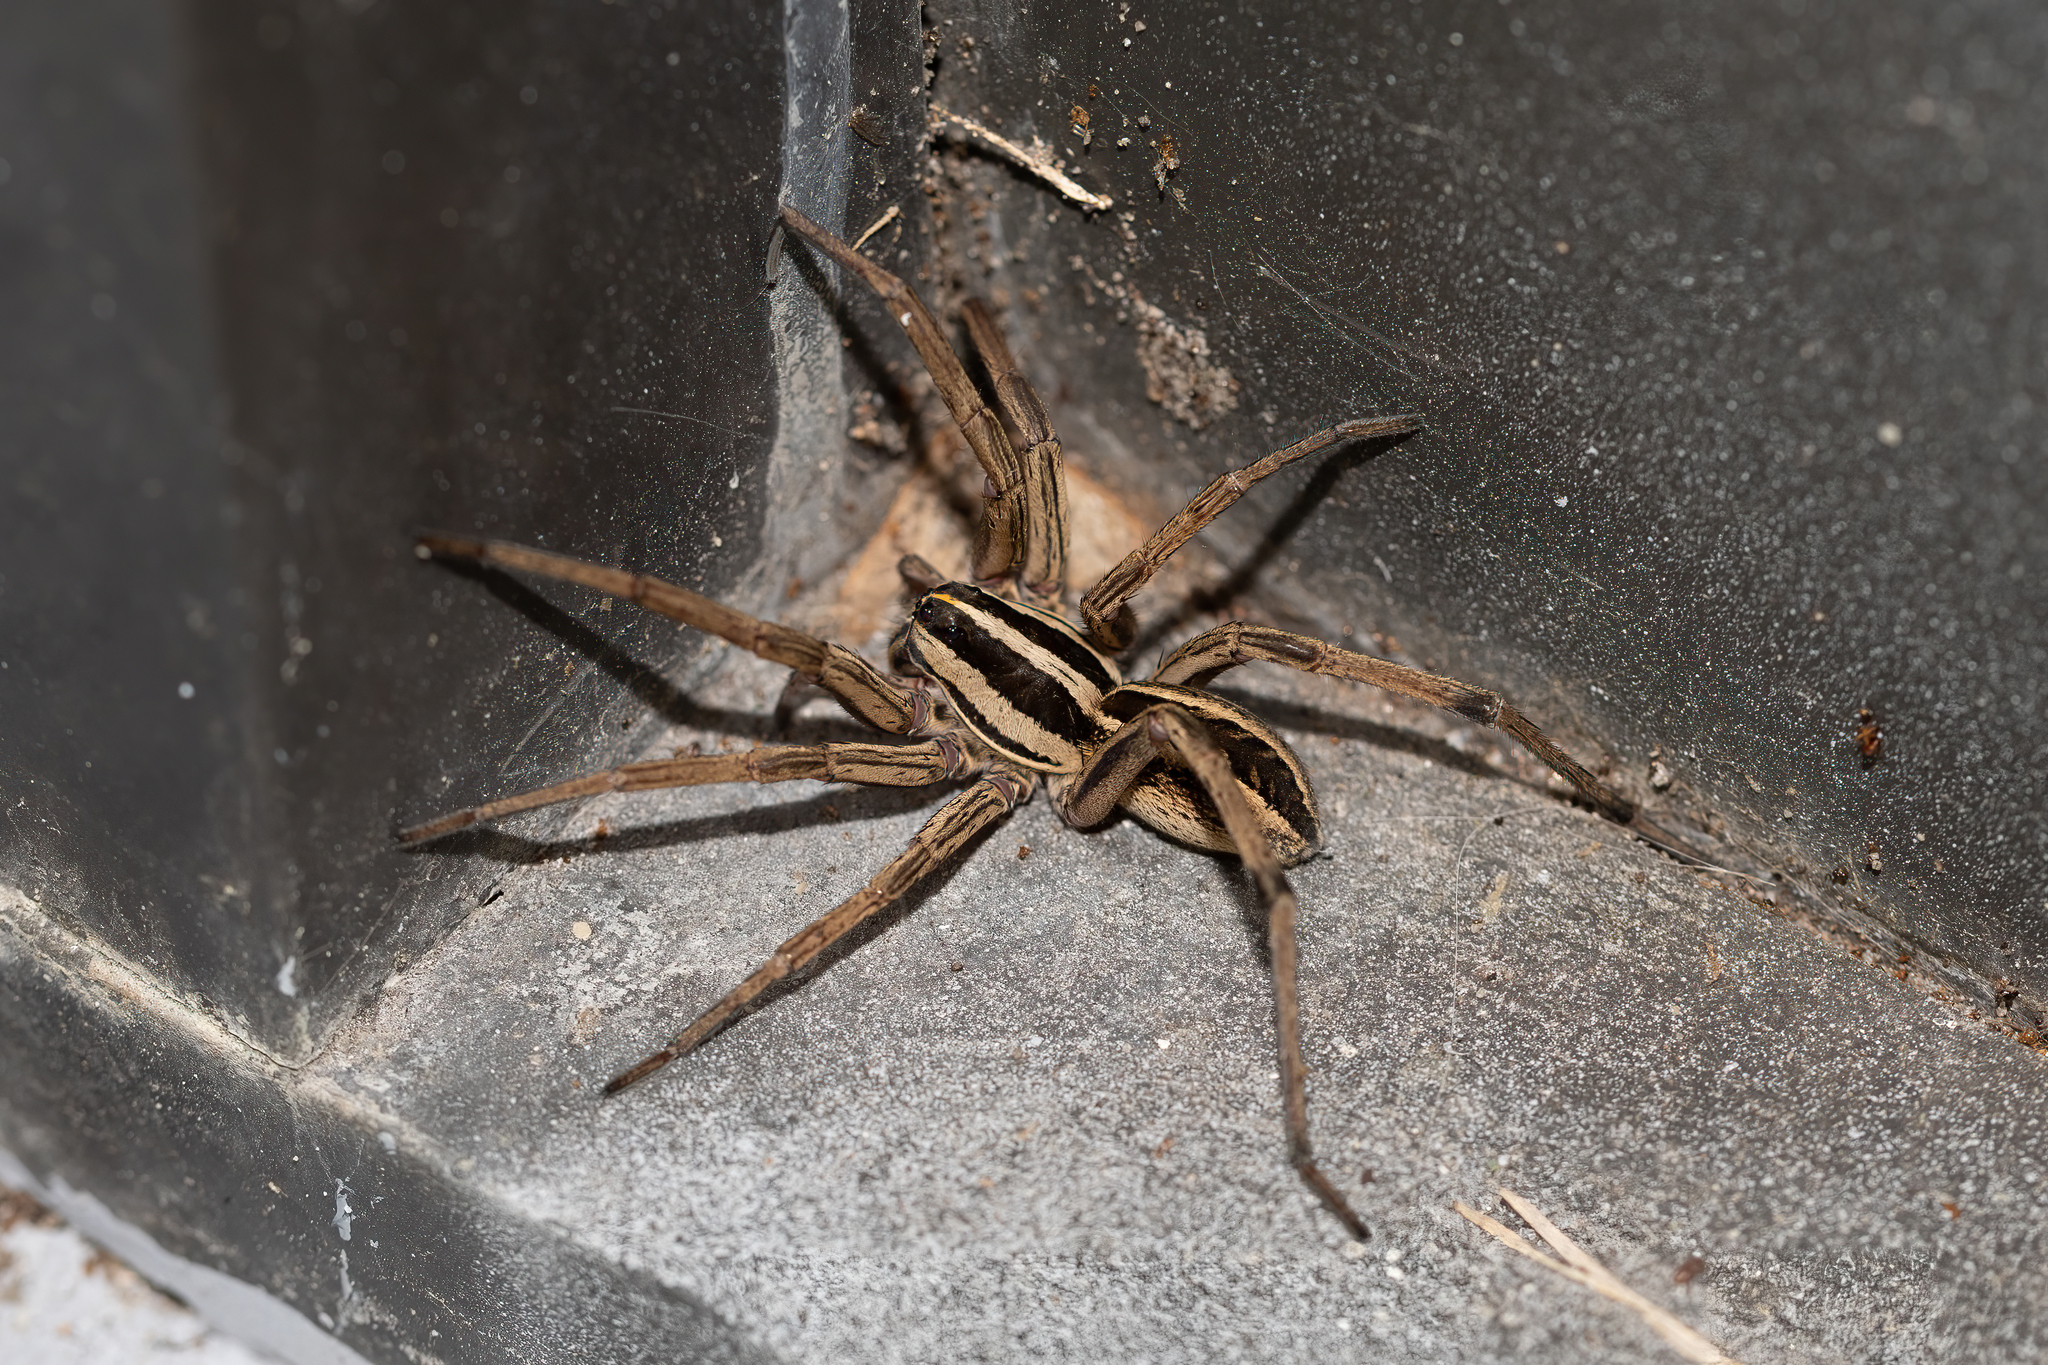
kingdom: Animalia
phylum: Arthropoda
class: Arachnida
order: Araneae
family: Lycosidae
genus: Rabidosa
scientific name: Rabidosa rabida
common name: Rabid wolf spider
